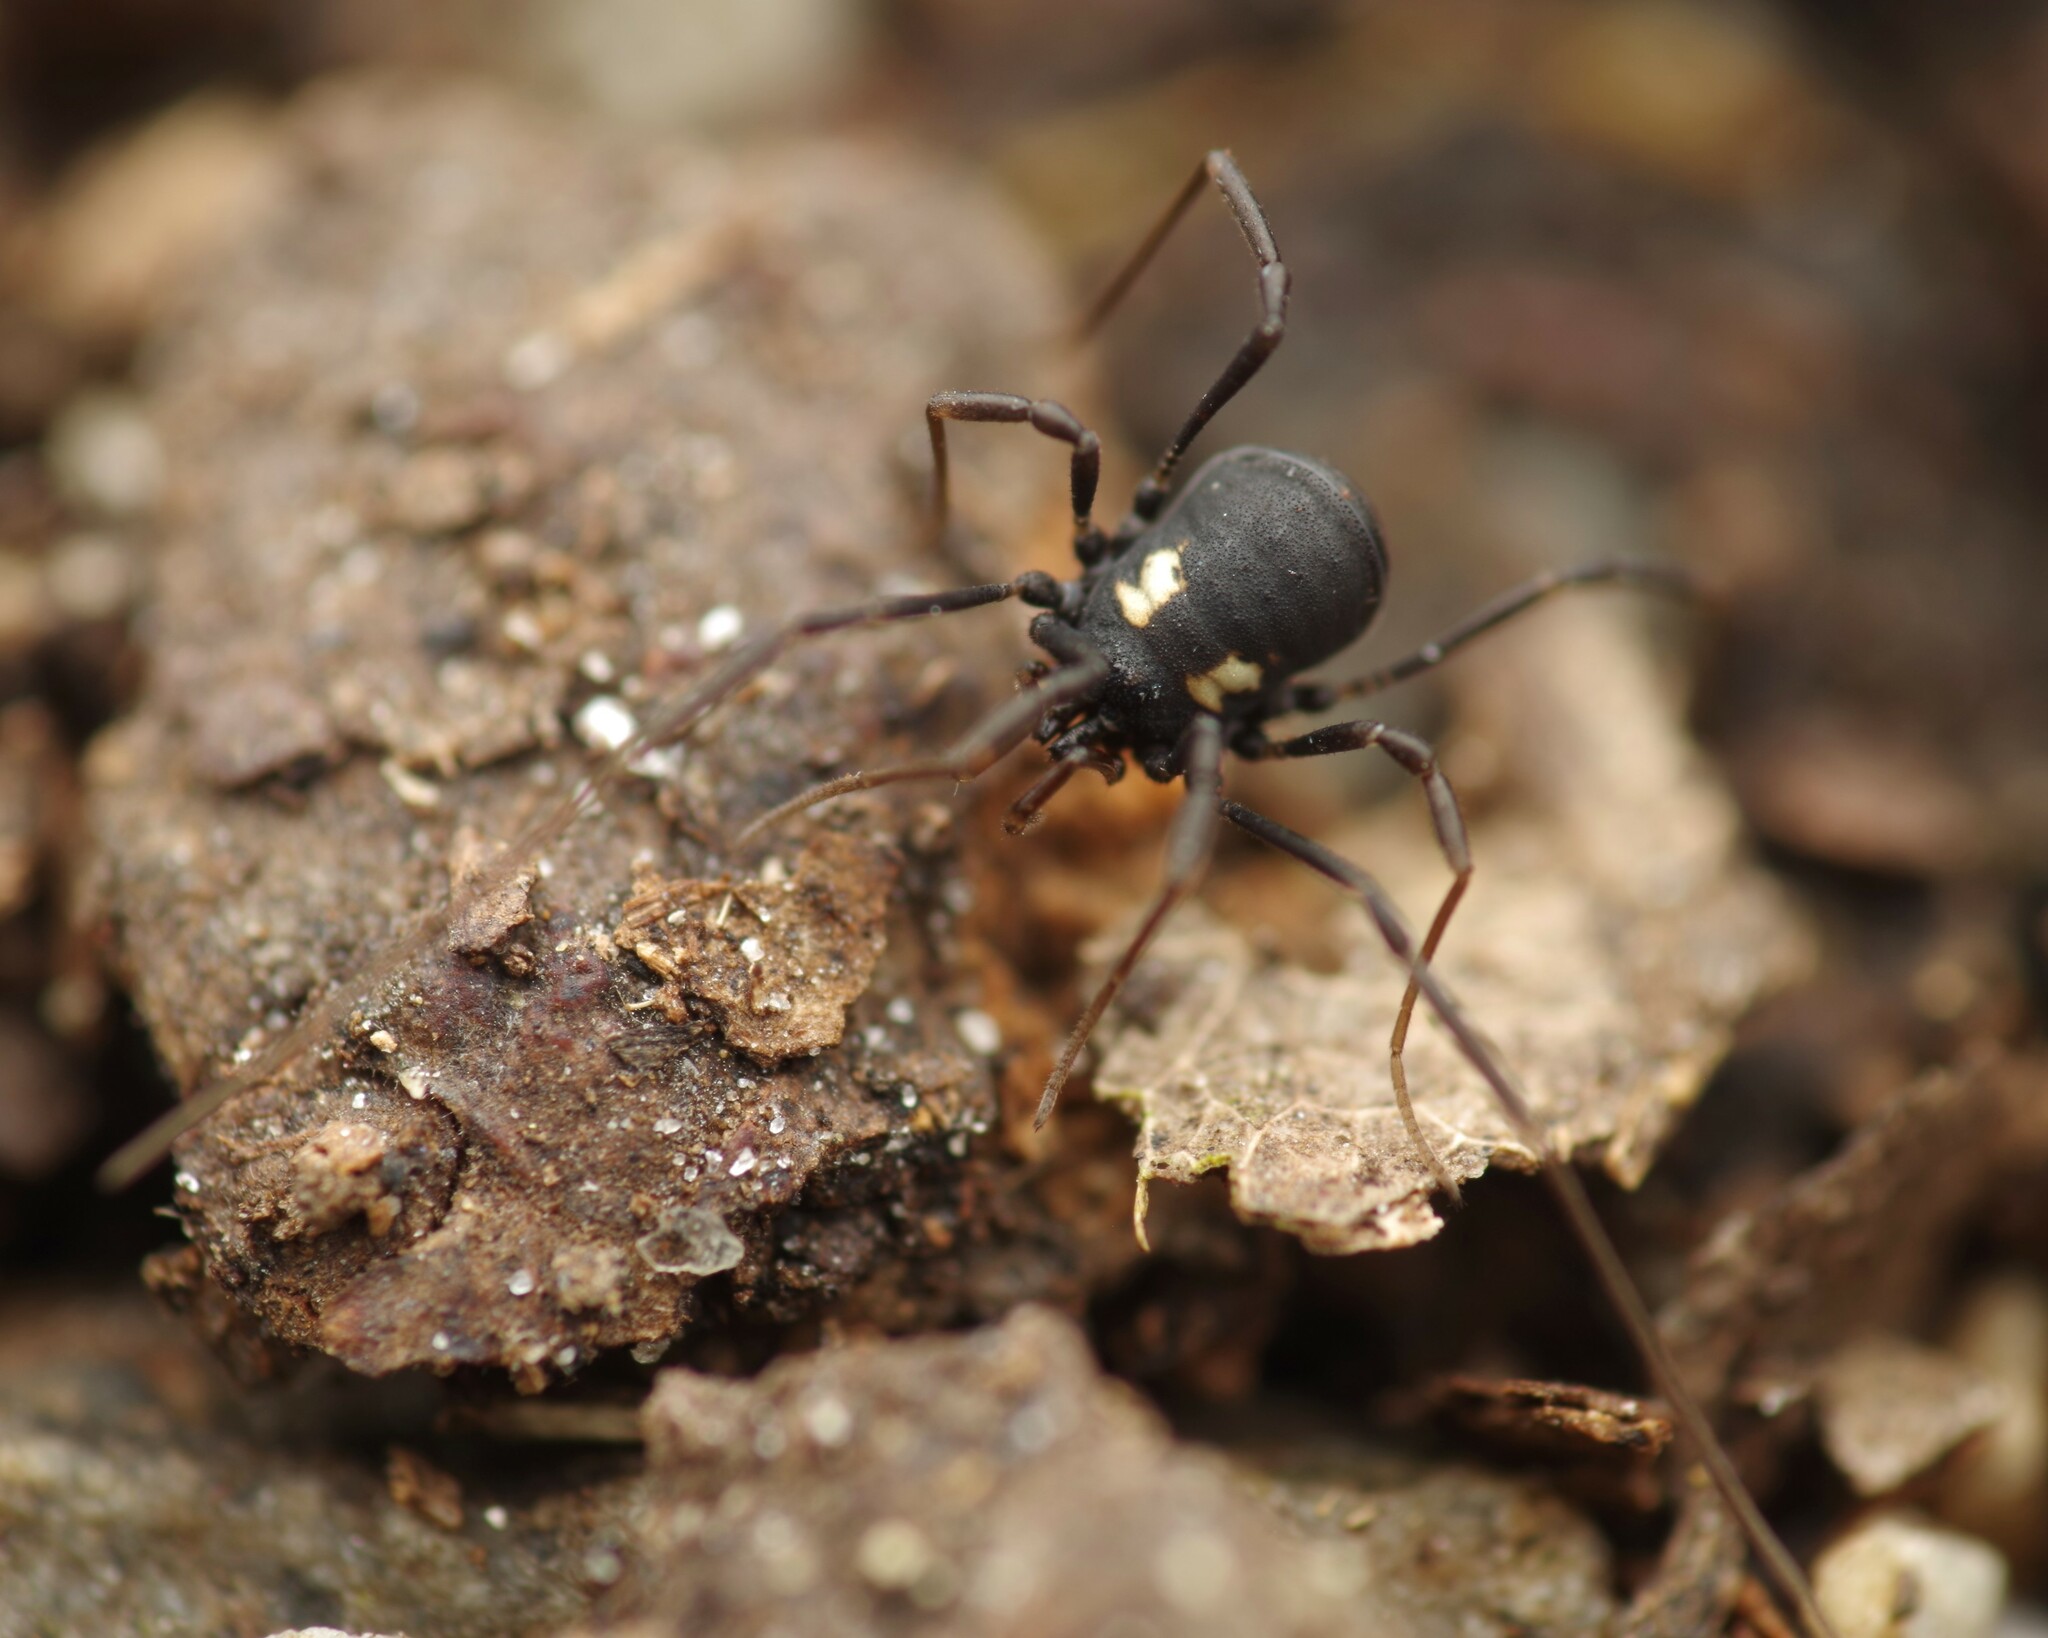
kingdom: Animalia
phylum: Arthropoda
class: Arachnida
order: Opiliones
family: Nemastomatidae
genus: Nemastoma
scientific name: Nemastoma bimaculatum
